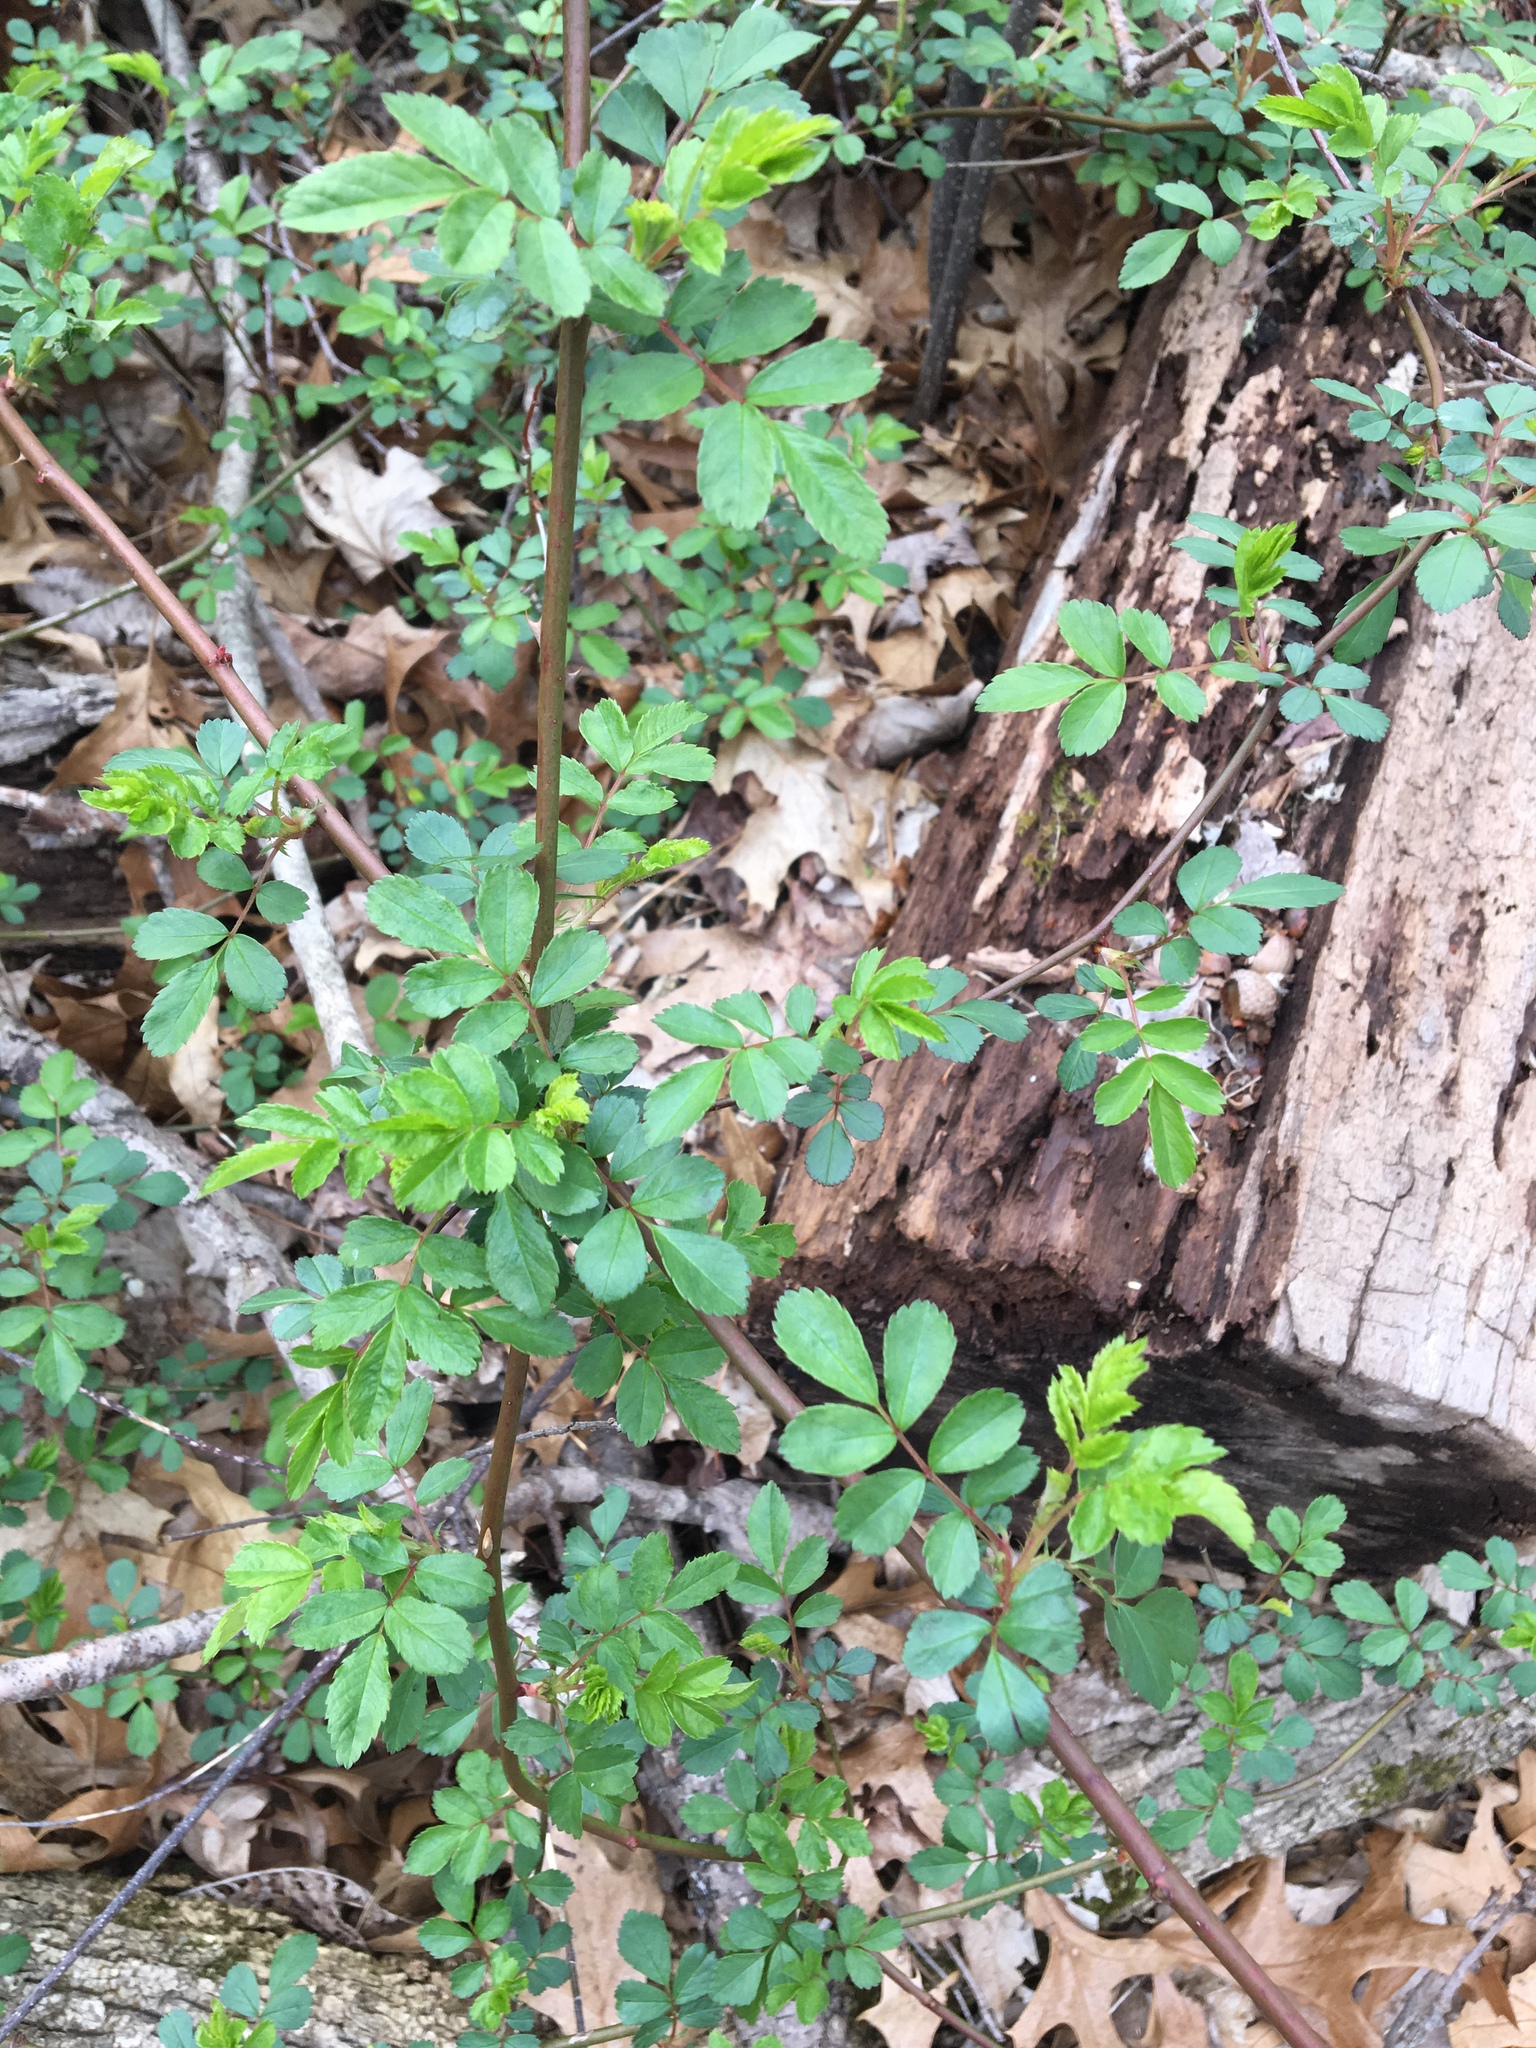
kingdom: Plantae
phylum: Tracheophyta
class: Magnoliopsida
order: Rosales
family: Rosaceae
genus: Rosa
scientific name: Rosa multiflora
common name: Multiflora rose
